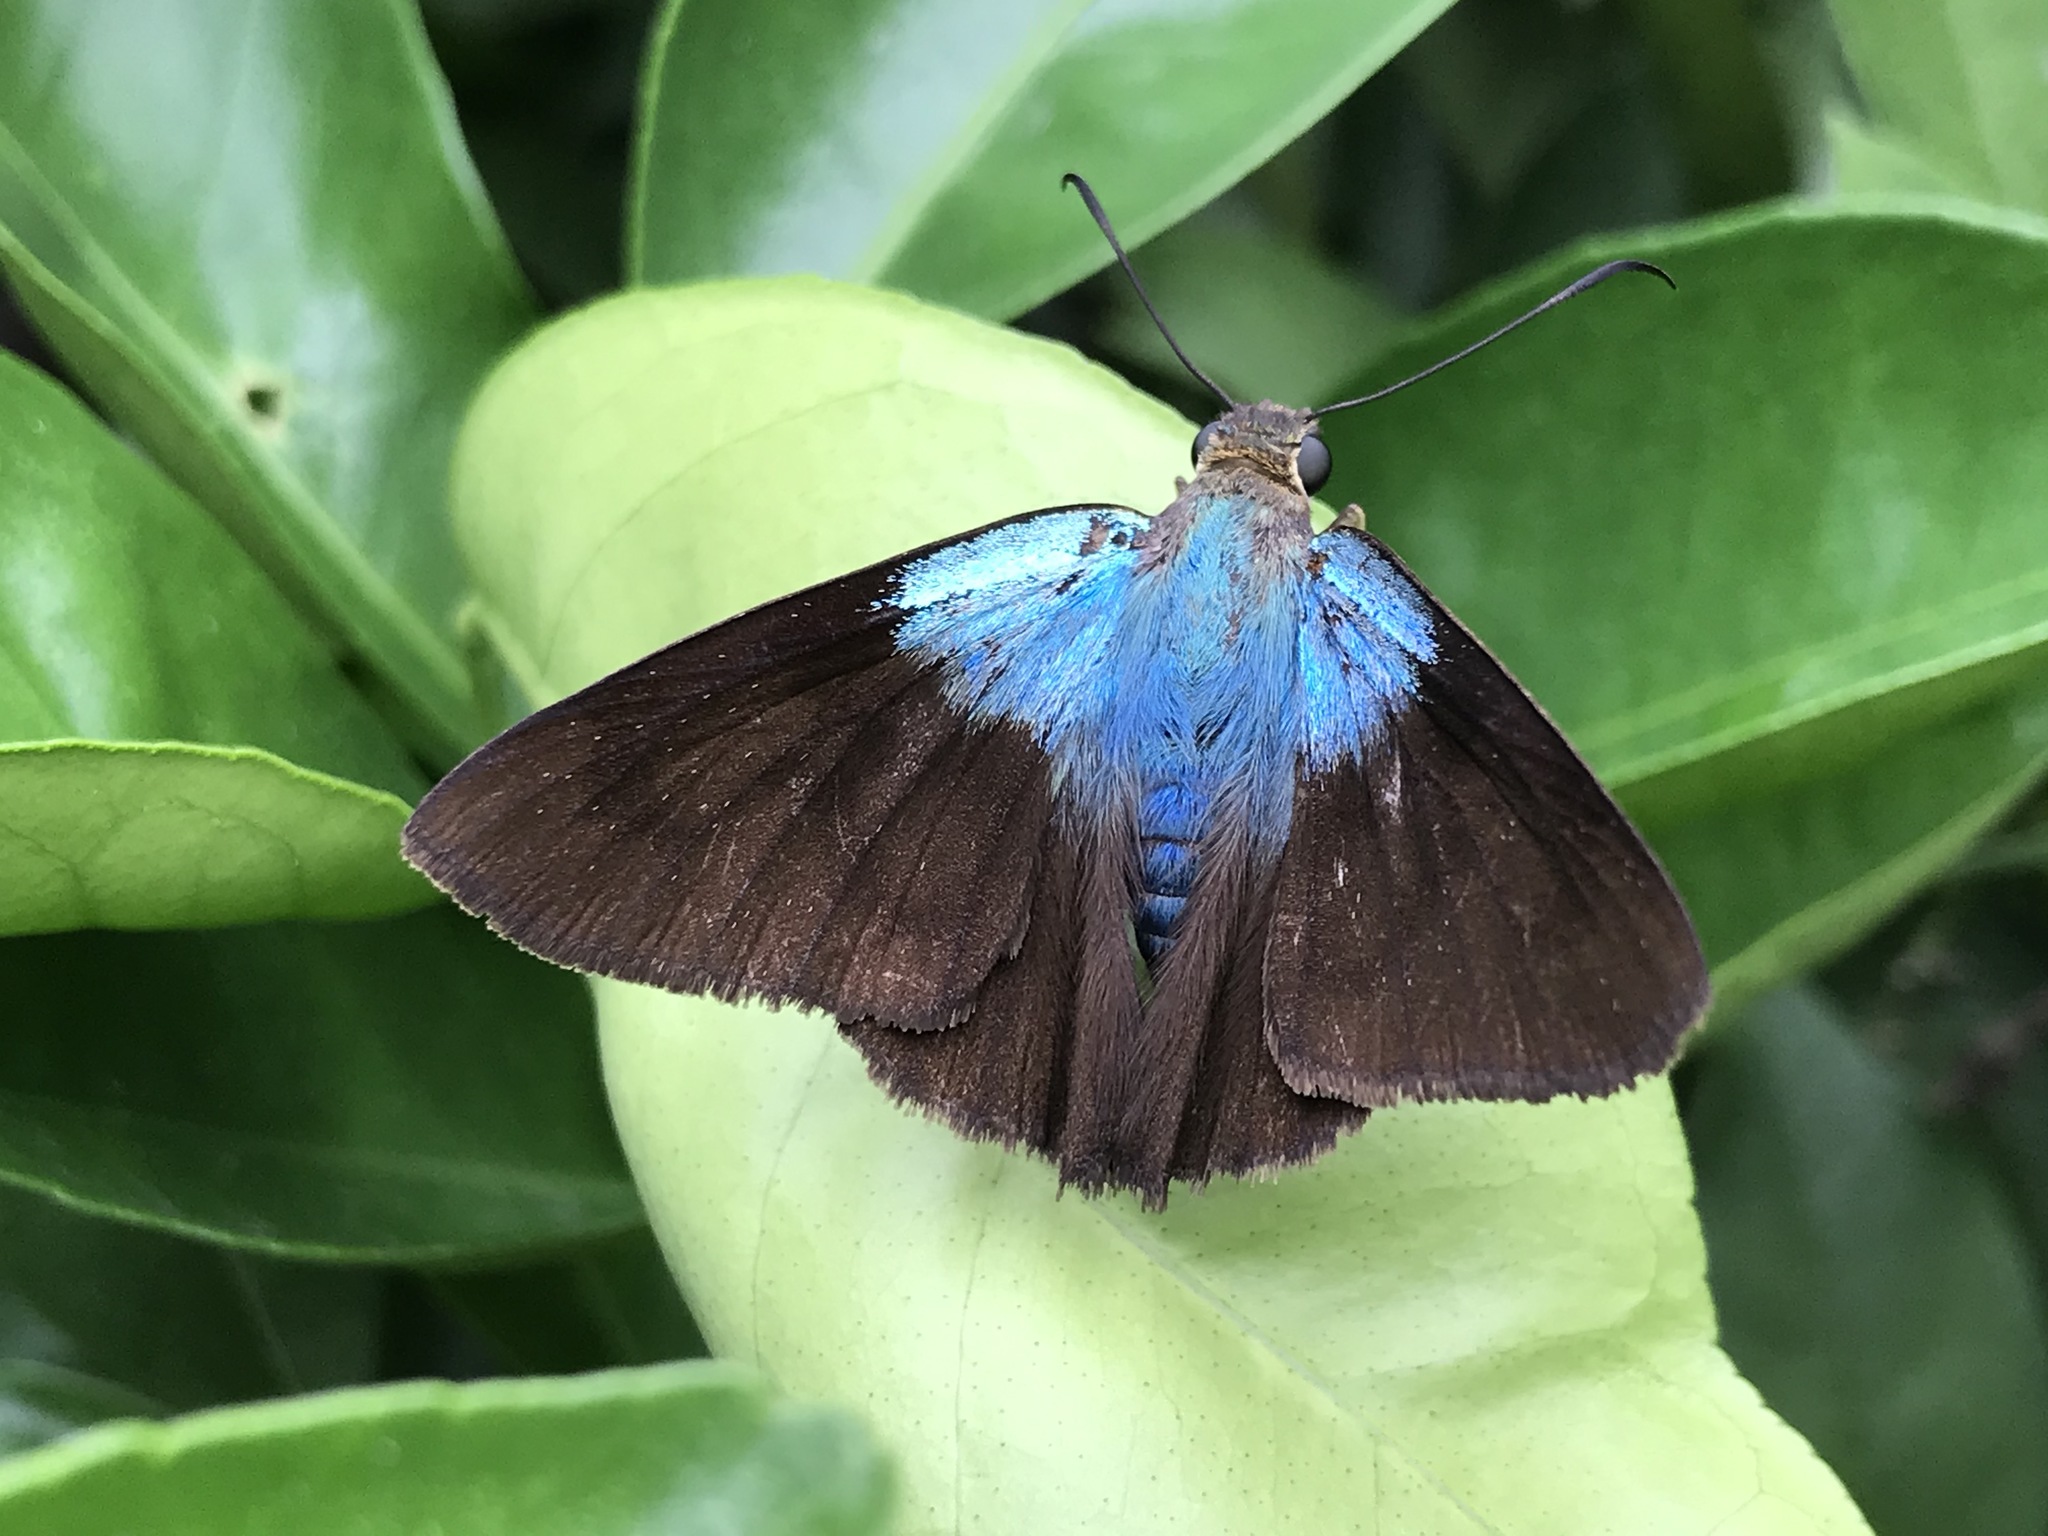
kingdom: Animalia
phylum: Arthropoda
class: Insecta
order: Lepidoptera
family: Hesperiidae
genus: Astraptes
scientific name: Astraptes alector
